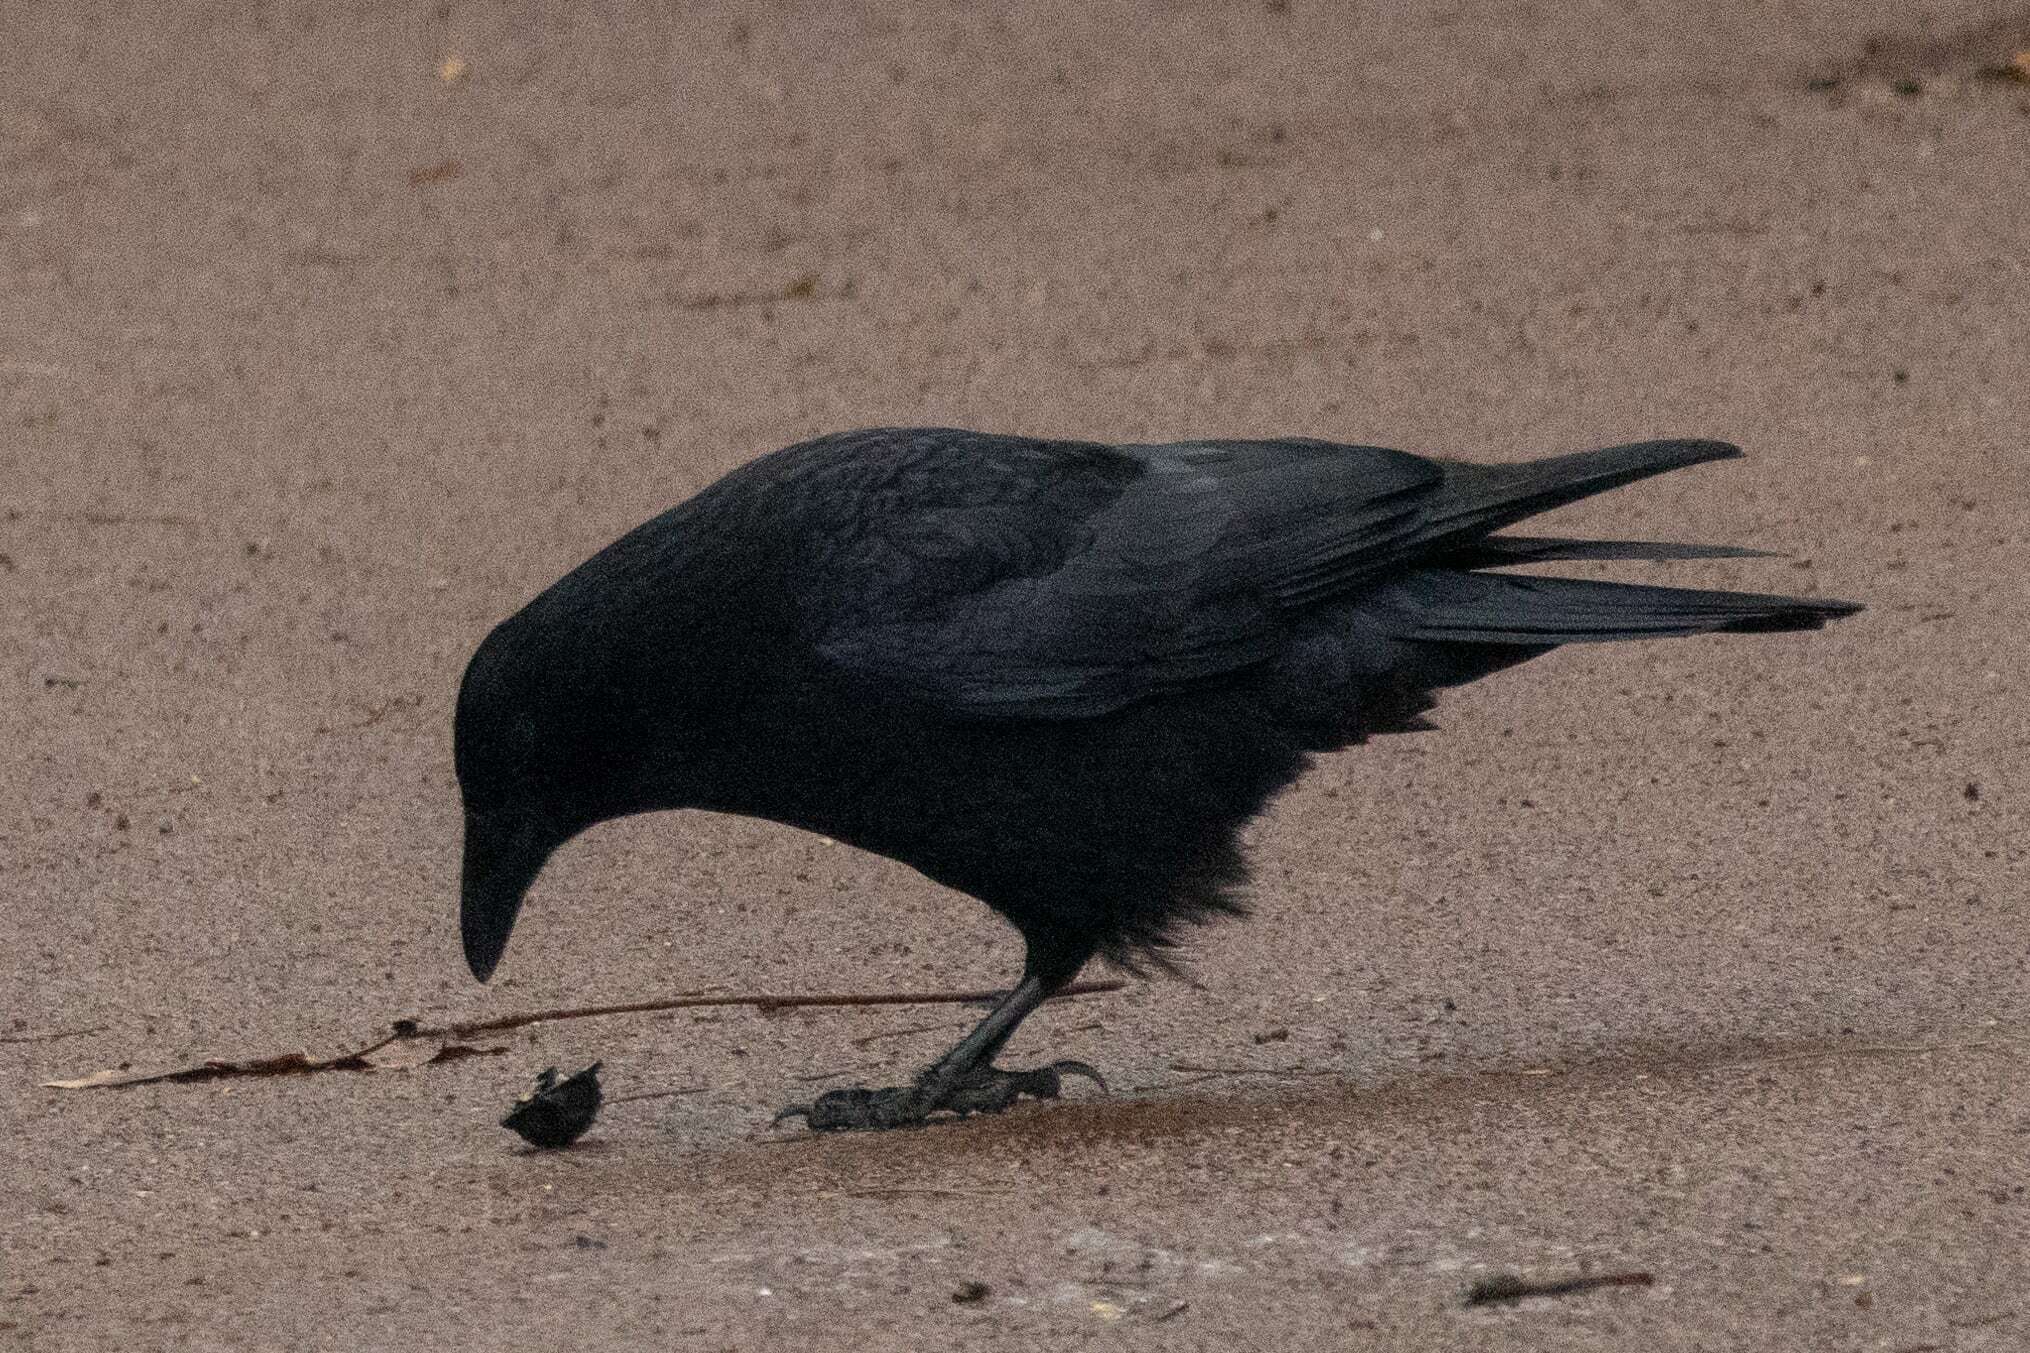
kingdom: Animalia
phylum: Chordata
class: Aves
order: Passeriformes
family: Corvidae
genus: Corvus
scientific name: Corvus corone
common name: Carrion crow
